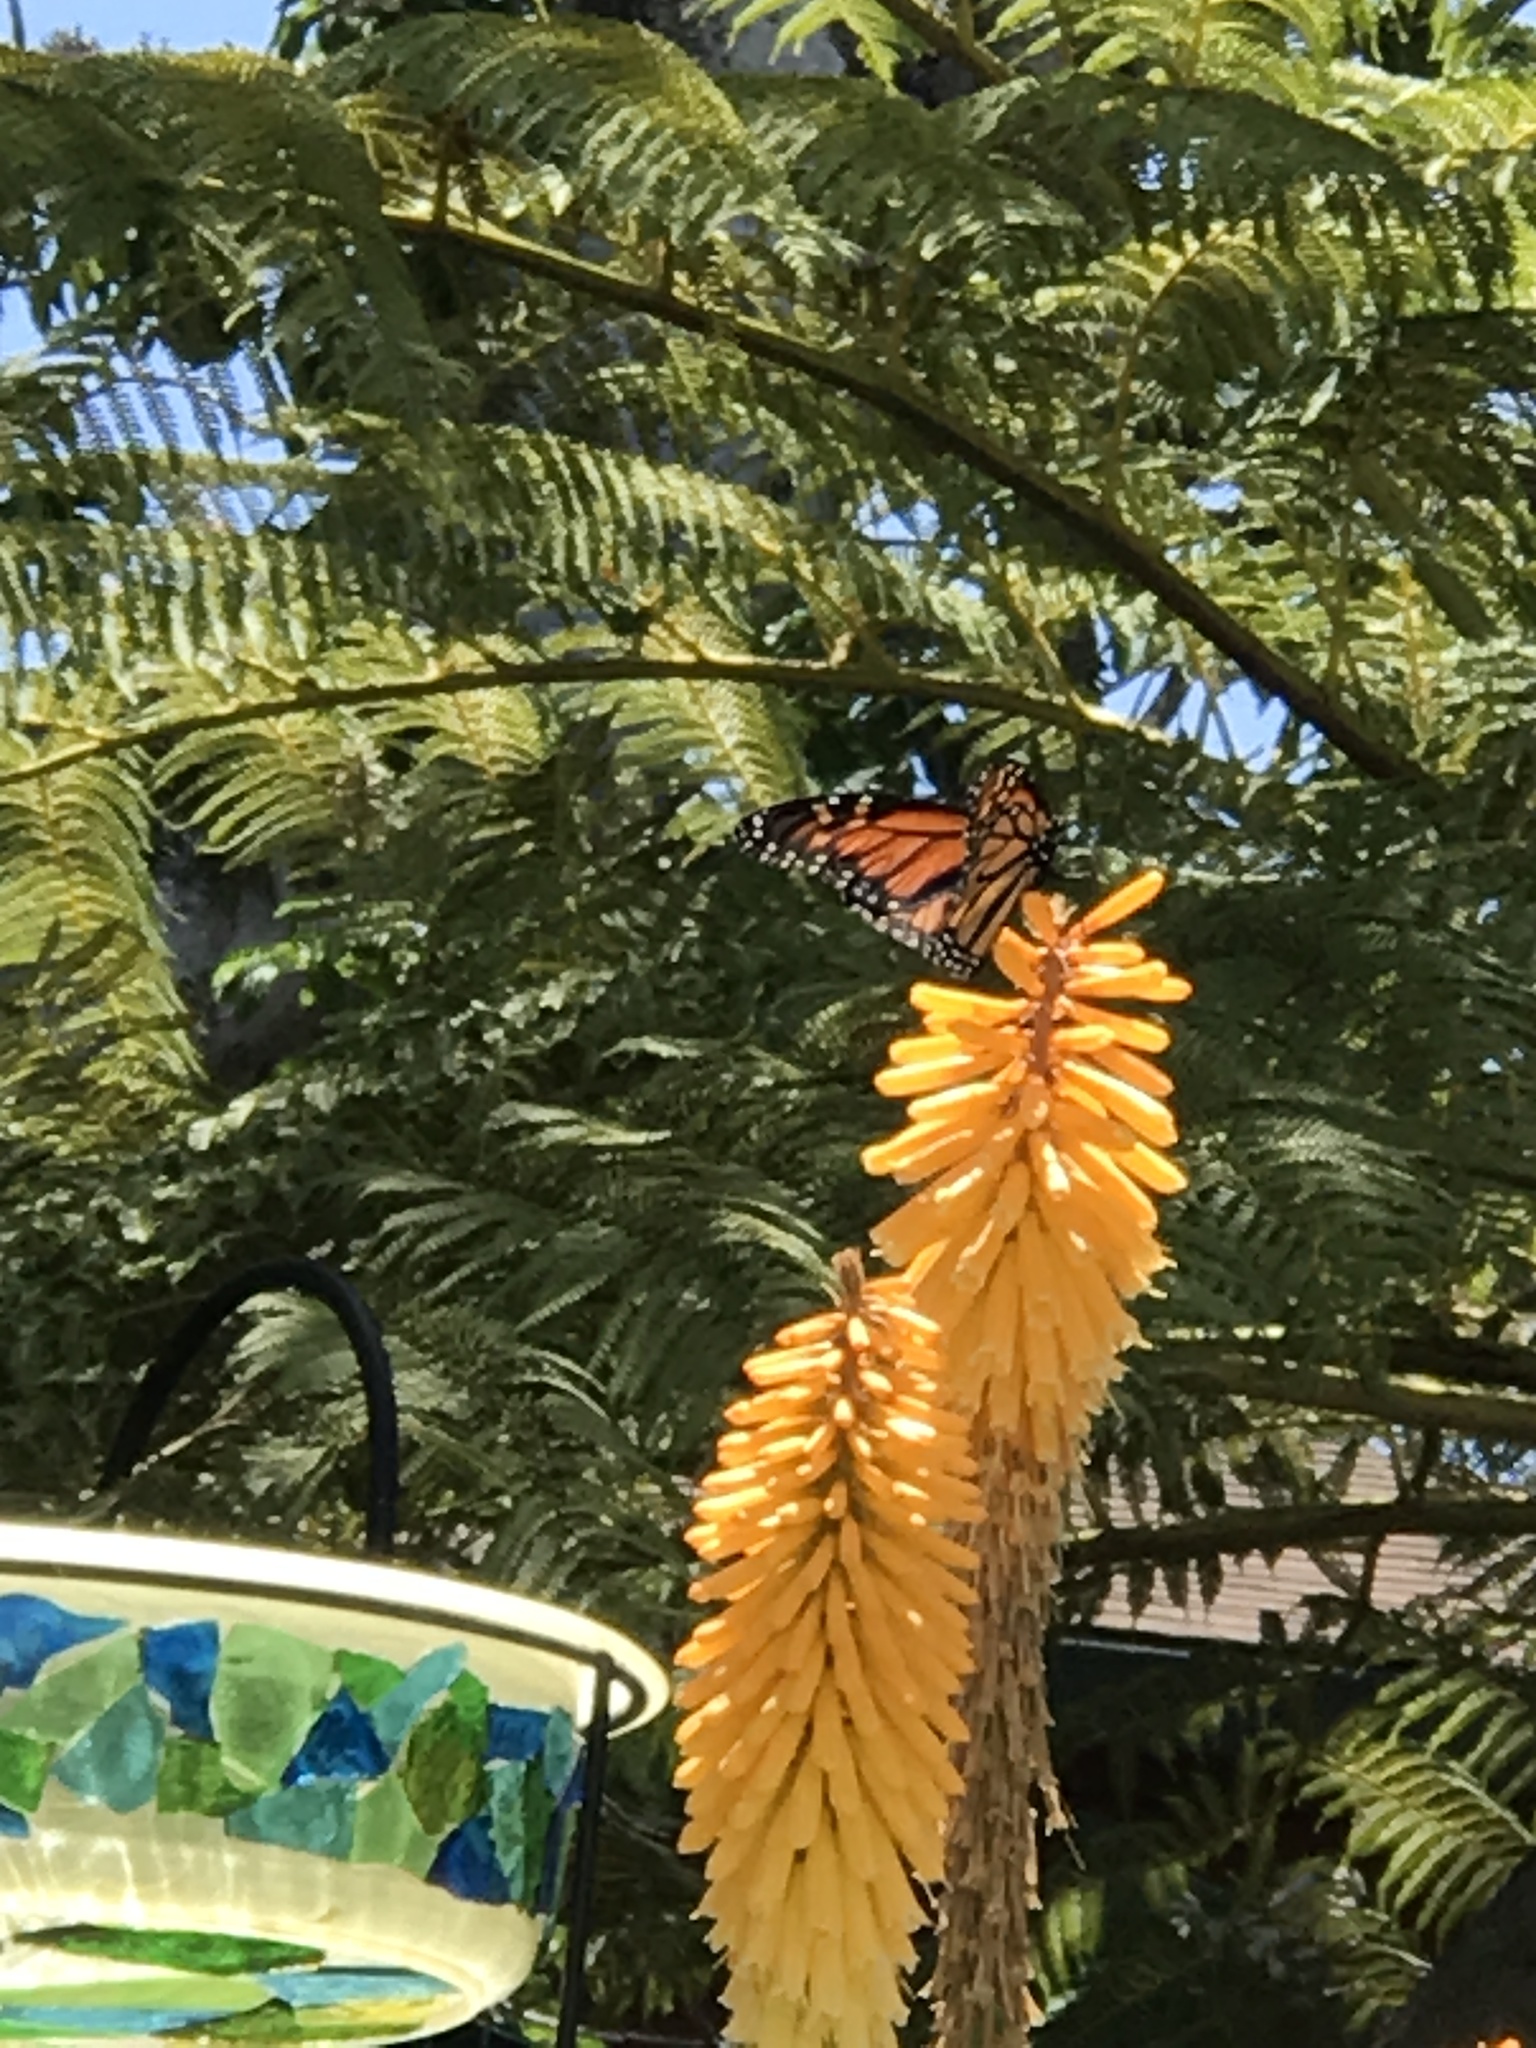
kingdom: Animalia
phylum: Arthropoda
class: Insecta
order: Lepidoptera
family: Nymphalidae
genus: Danaus
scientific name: Danaus plexippus
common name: Monarch
